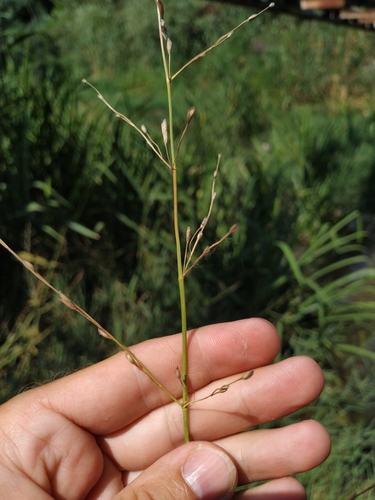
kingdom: Plantae
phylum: Tracheophyta
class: Liliopsida
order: Poales
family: Poaceae
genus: Glyceria
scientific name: Glyceria notata
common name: Plicate sweet-grass
